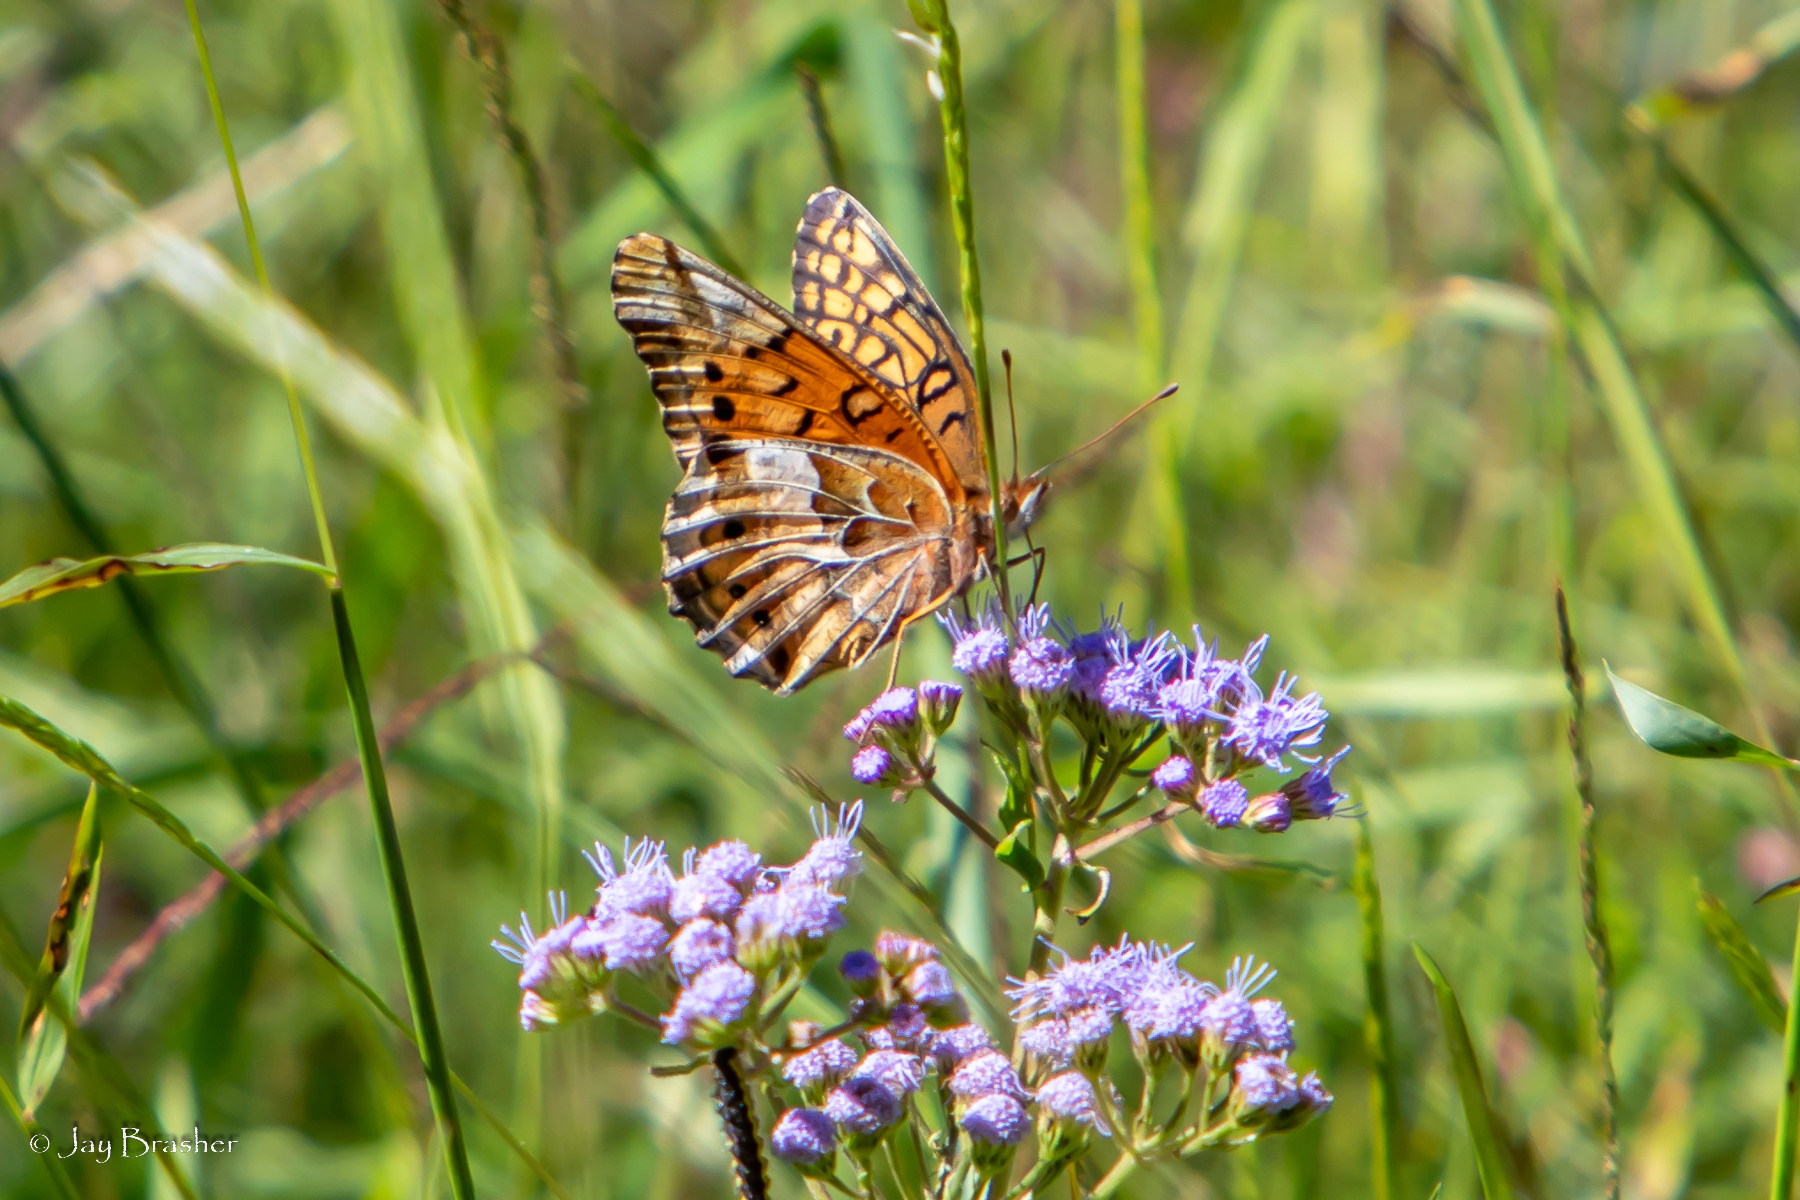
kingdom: Animalia
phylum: Arthropoda
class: Insecta
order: Lepidoptera
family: Nymphalidae
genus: Euptoieta
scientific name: Euptoieta claudia
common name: Variegated fritillary
